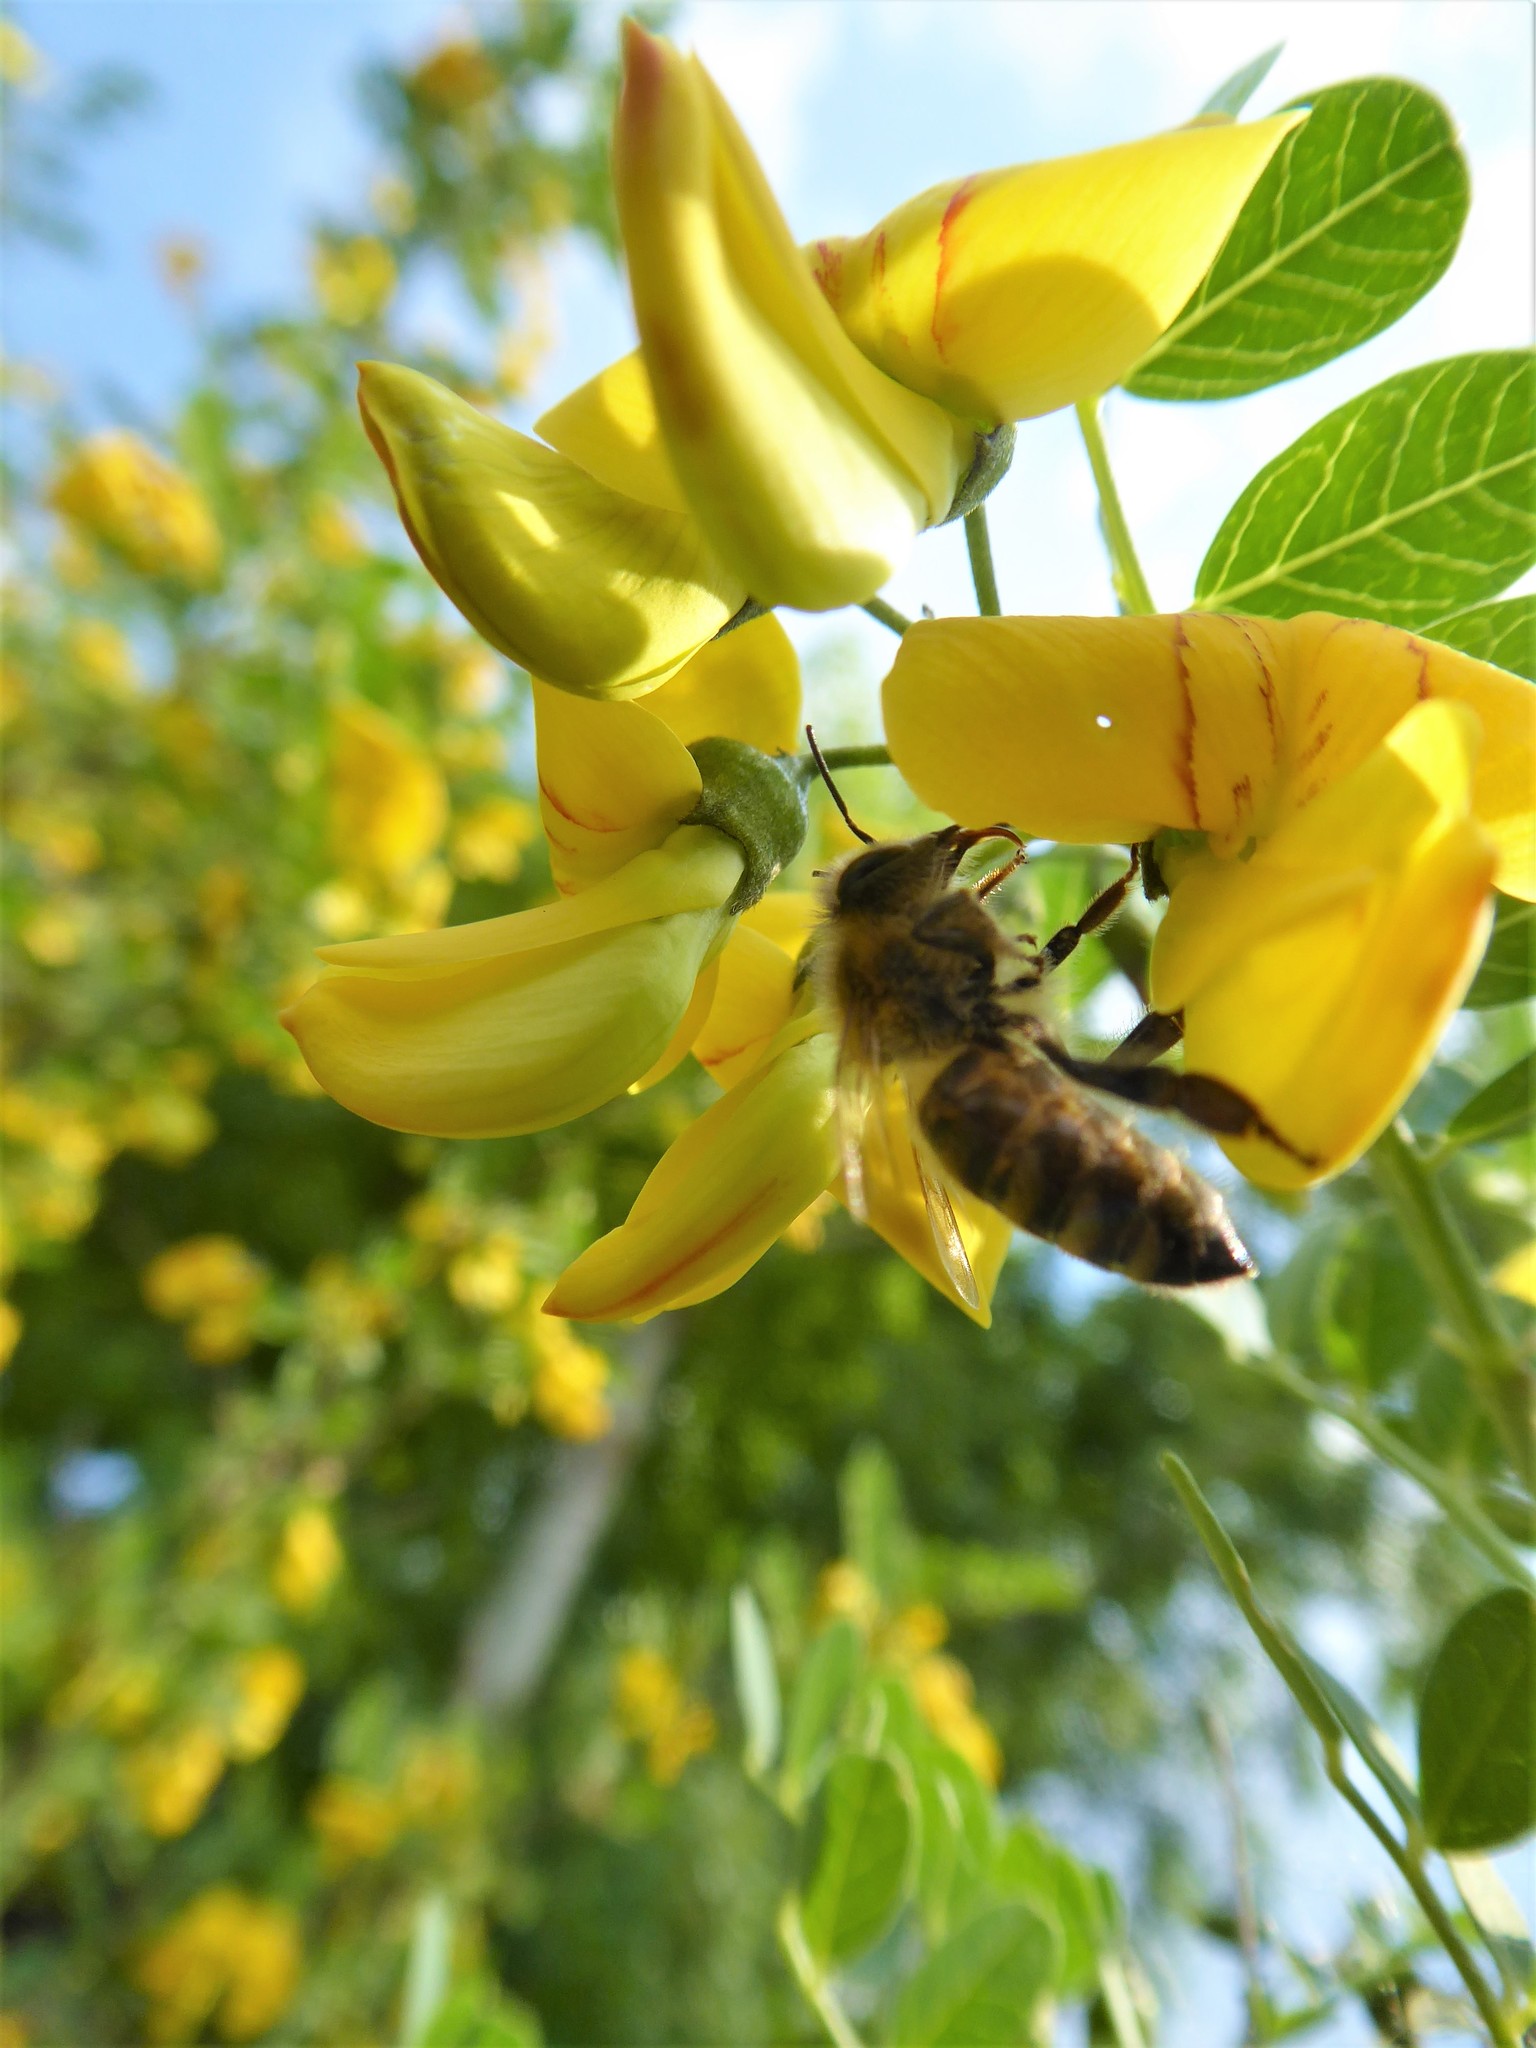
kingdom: Animalia
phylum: Arthropoda
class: Insecta
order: Hymenoptera
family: Apidae
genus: Apis
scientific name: Apis mellifera
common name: Honey bee
